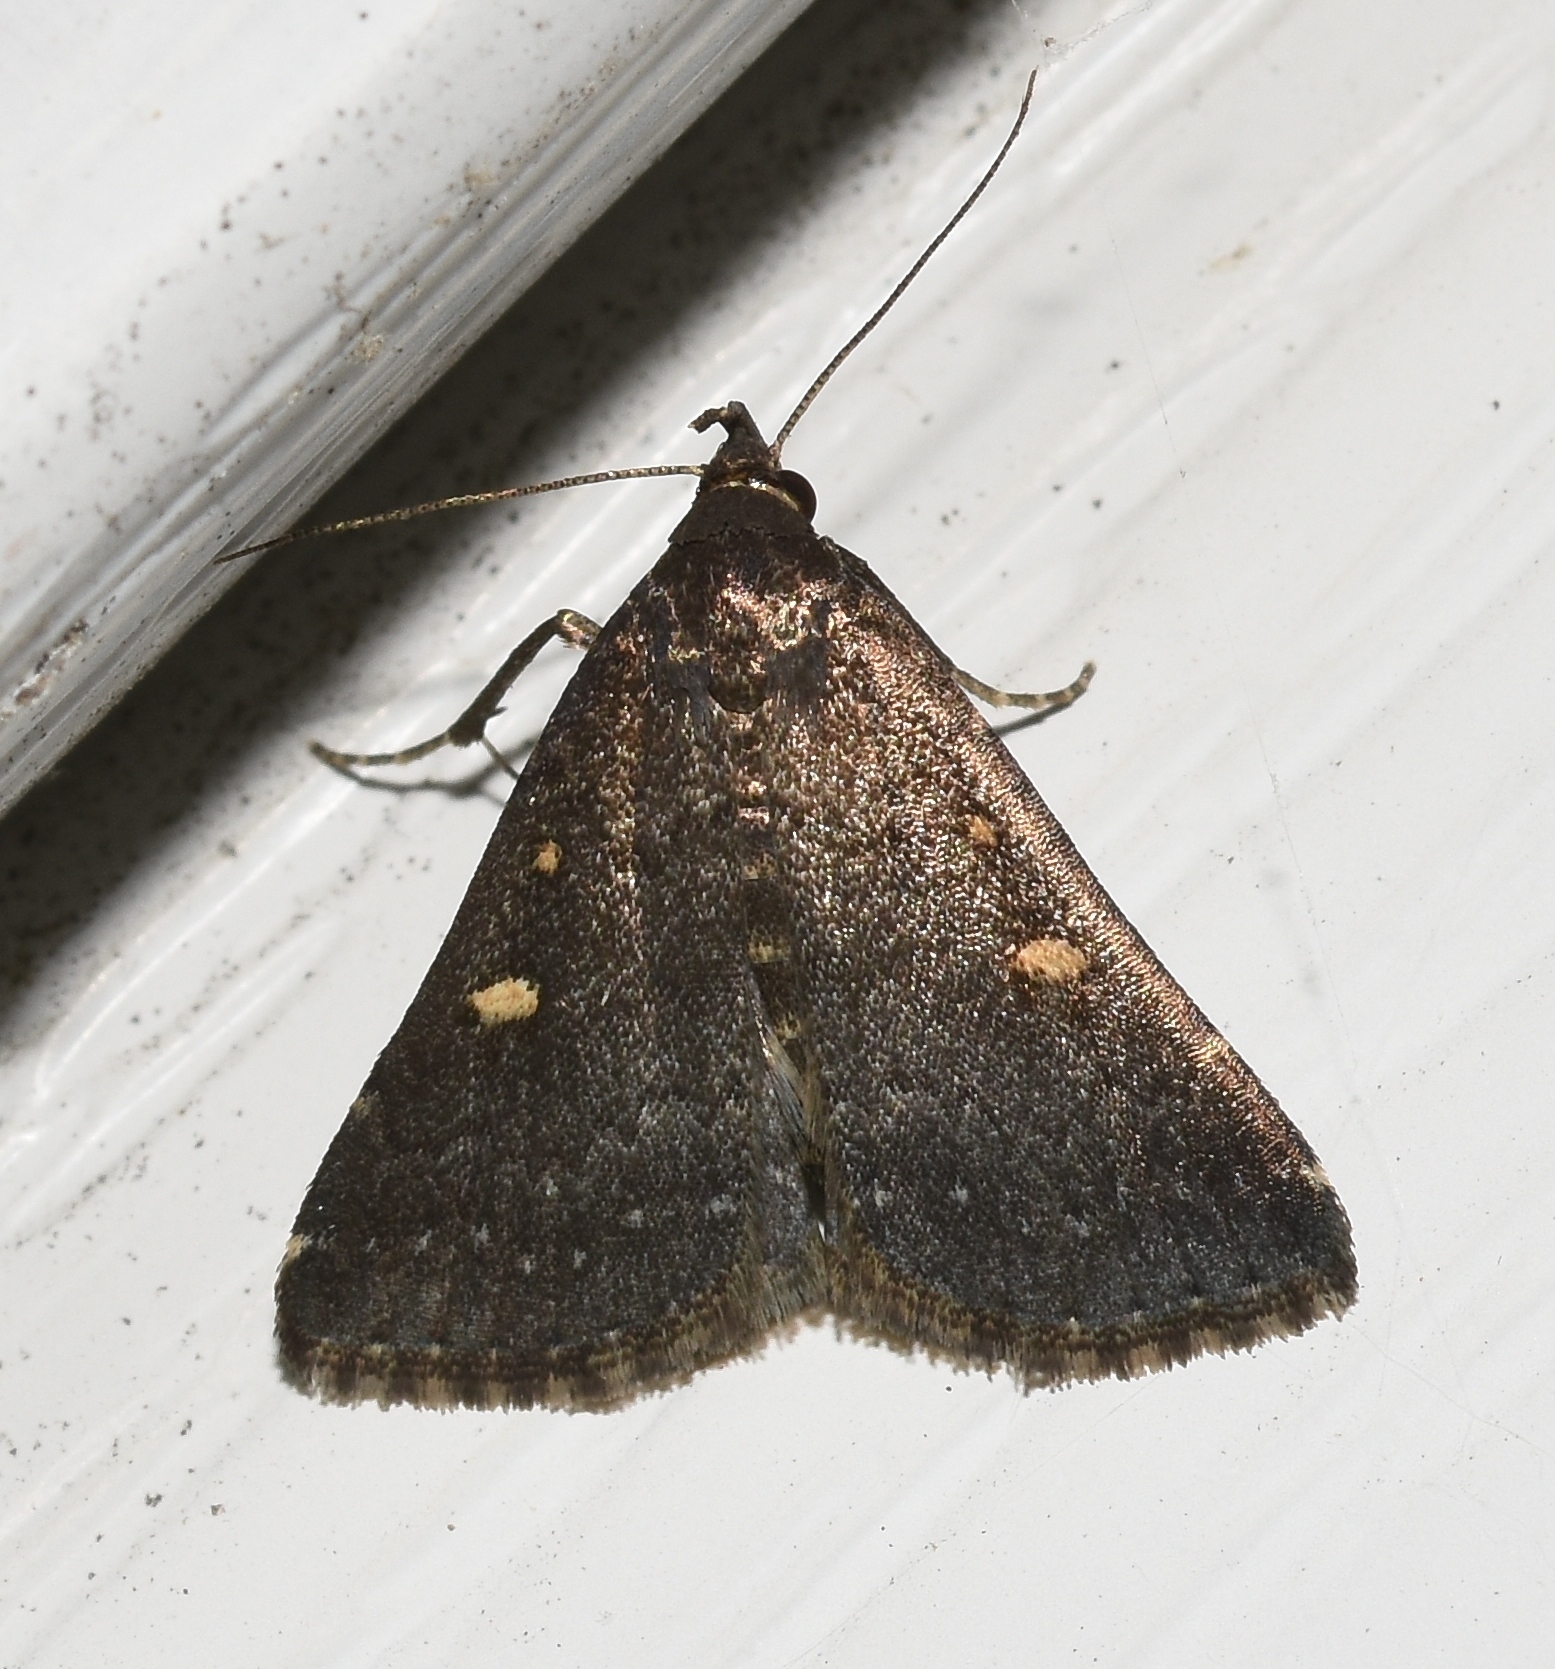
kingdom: Animalia
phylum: Arthropoda
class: Insecta
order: Lepidoptera
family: Erebidae
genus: Tetanolita
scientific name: Tetanolita mynesalis
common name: Smoky tetanolita moth
